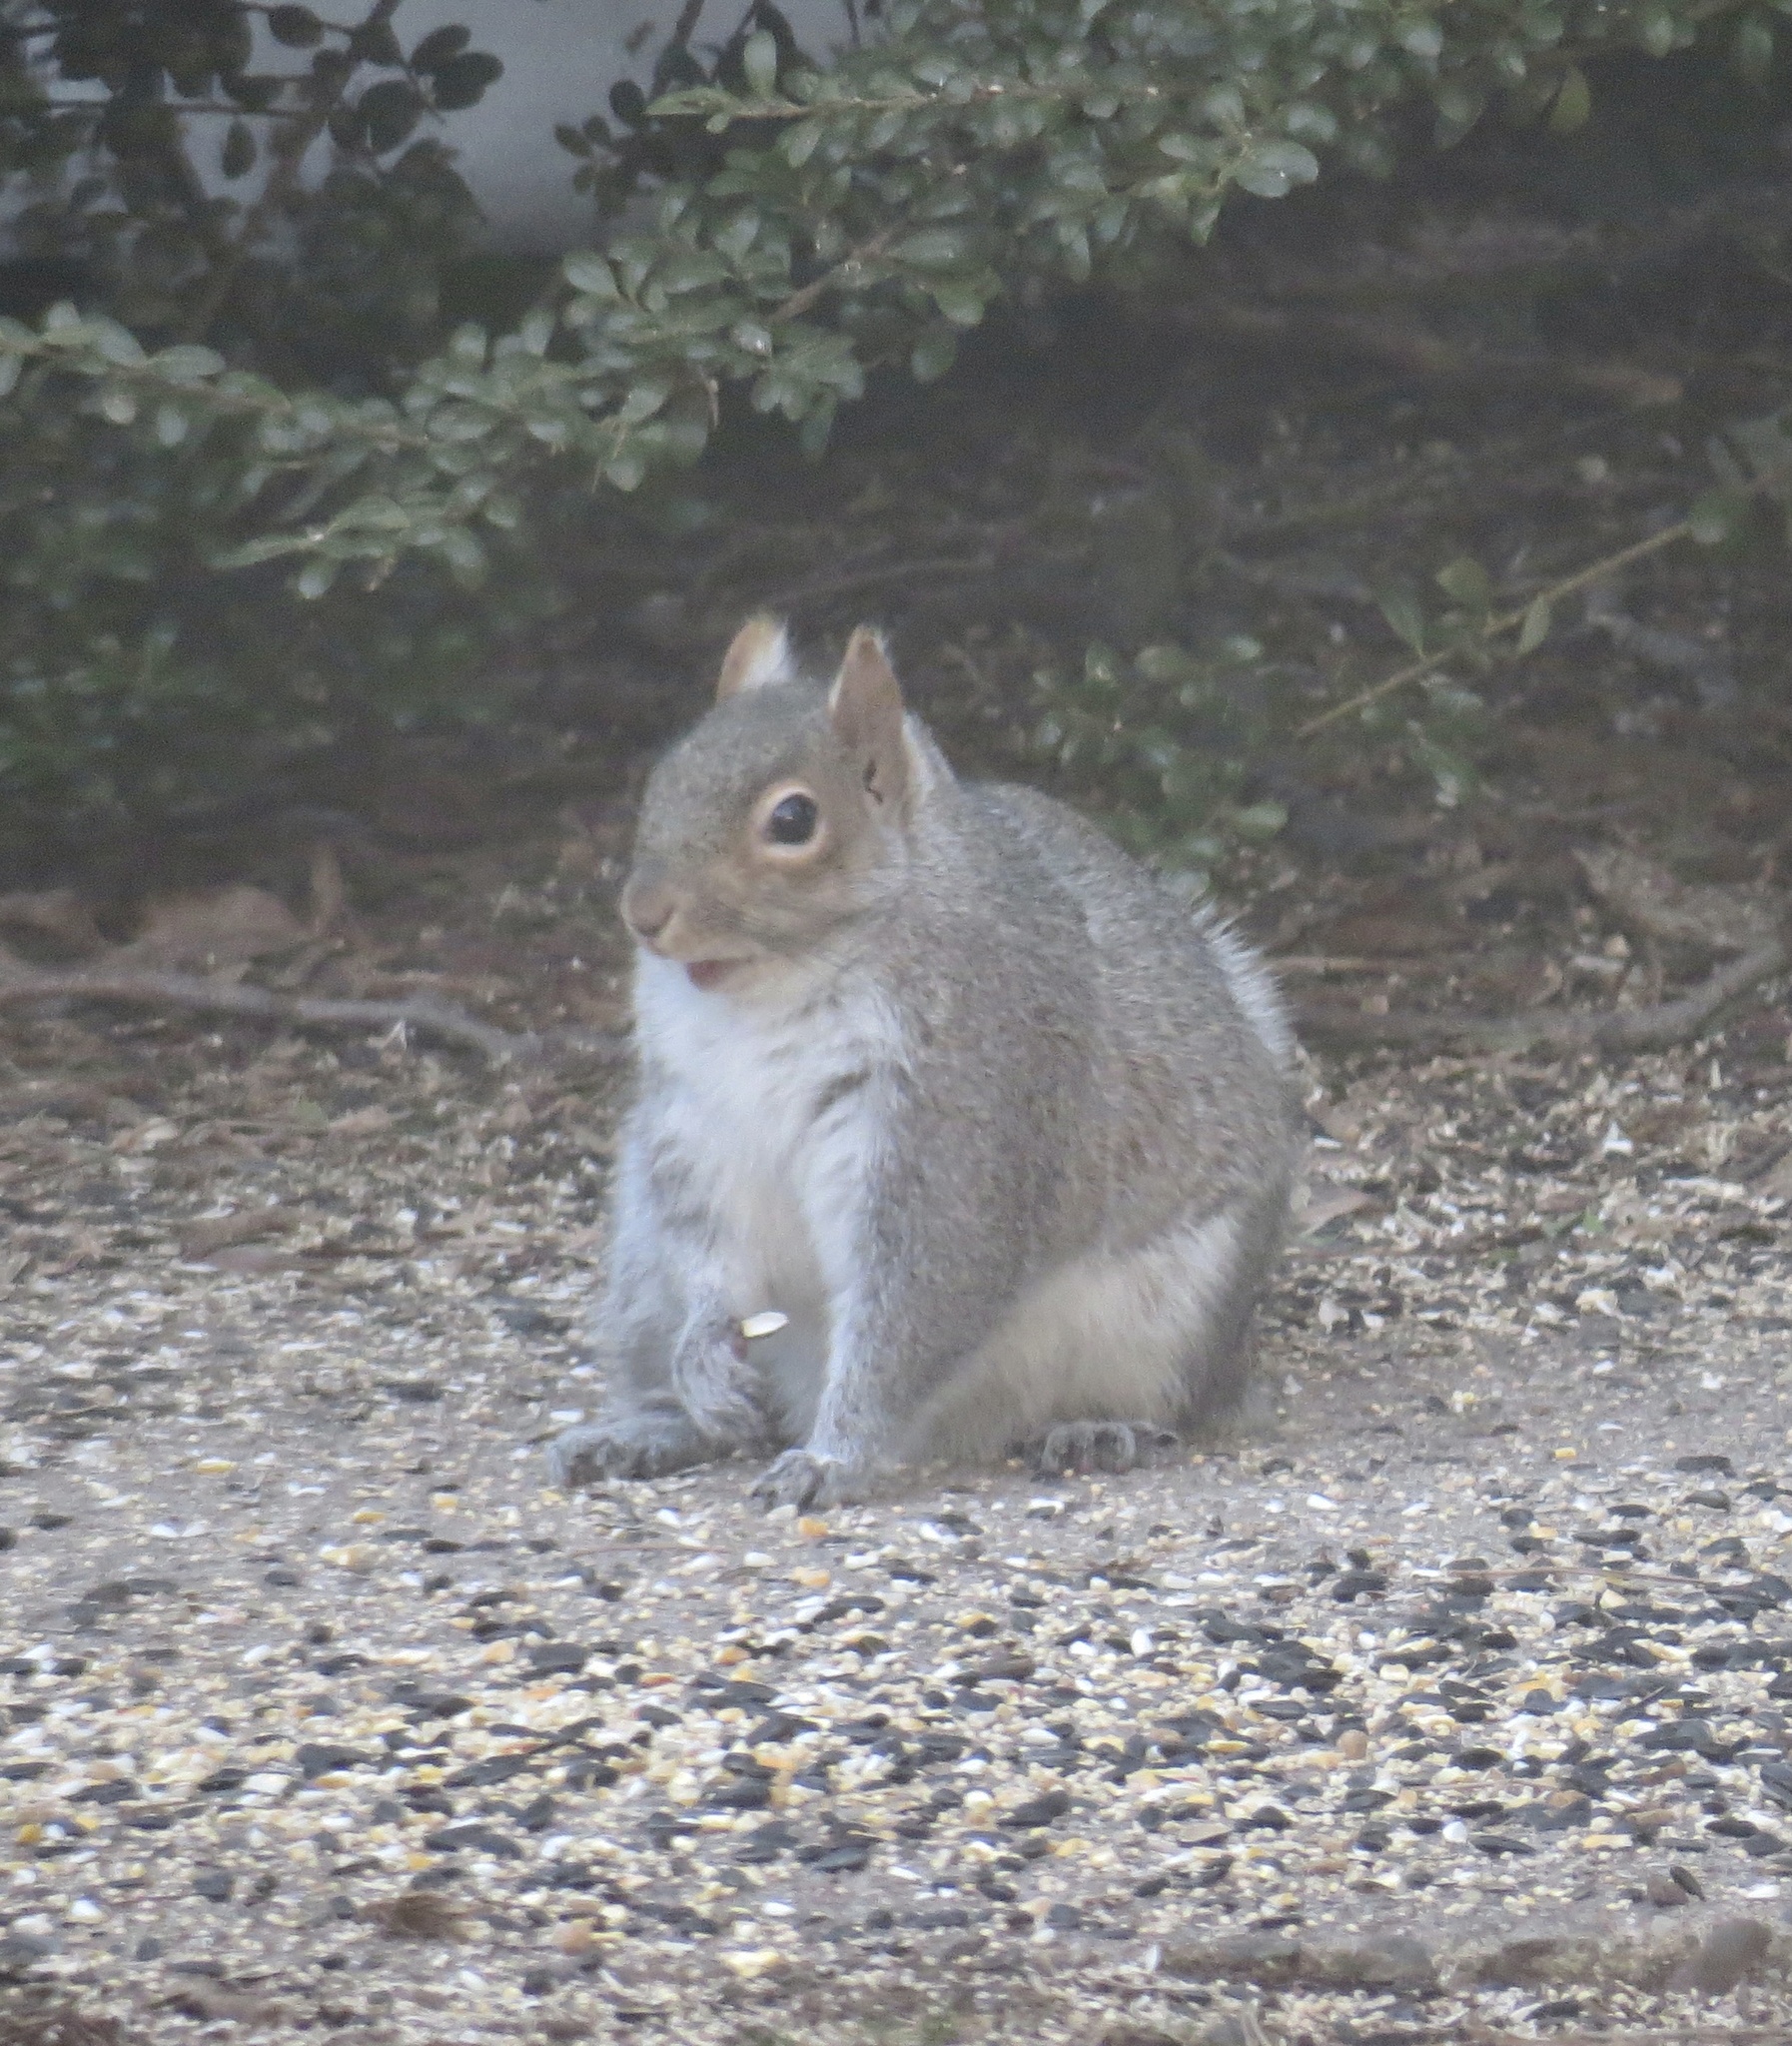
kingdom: Animalia
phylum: Chordata
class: Mammalia
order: Rodentia
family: Sciuridae
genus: Sciurus
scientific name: Sciurus carolinensis
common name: Eastern gray squirrel
